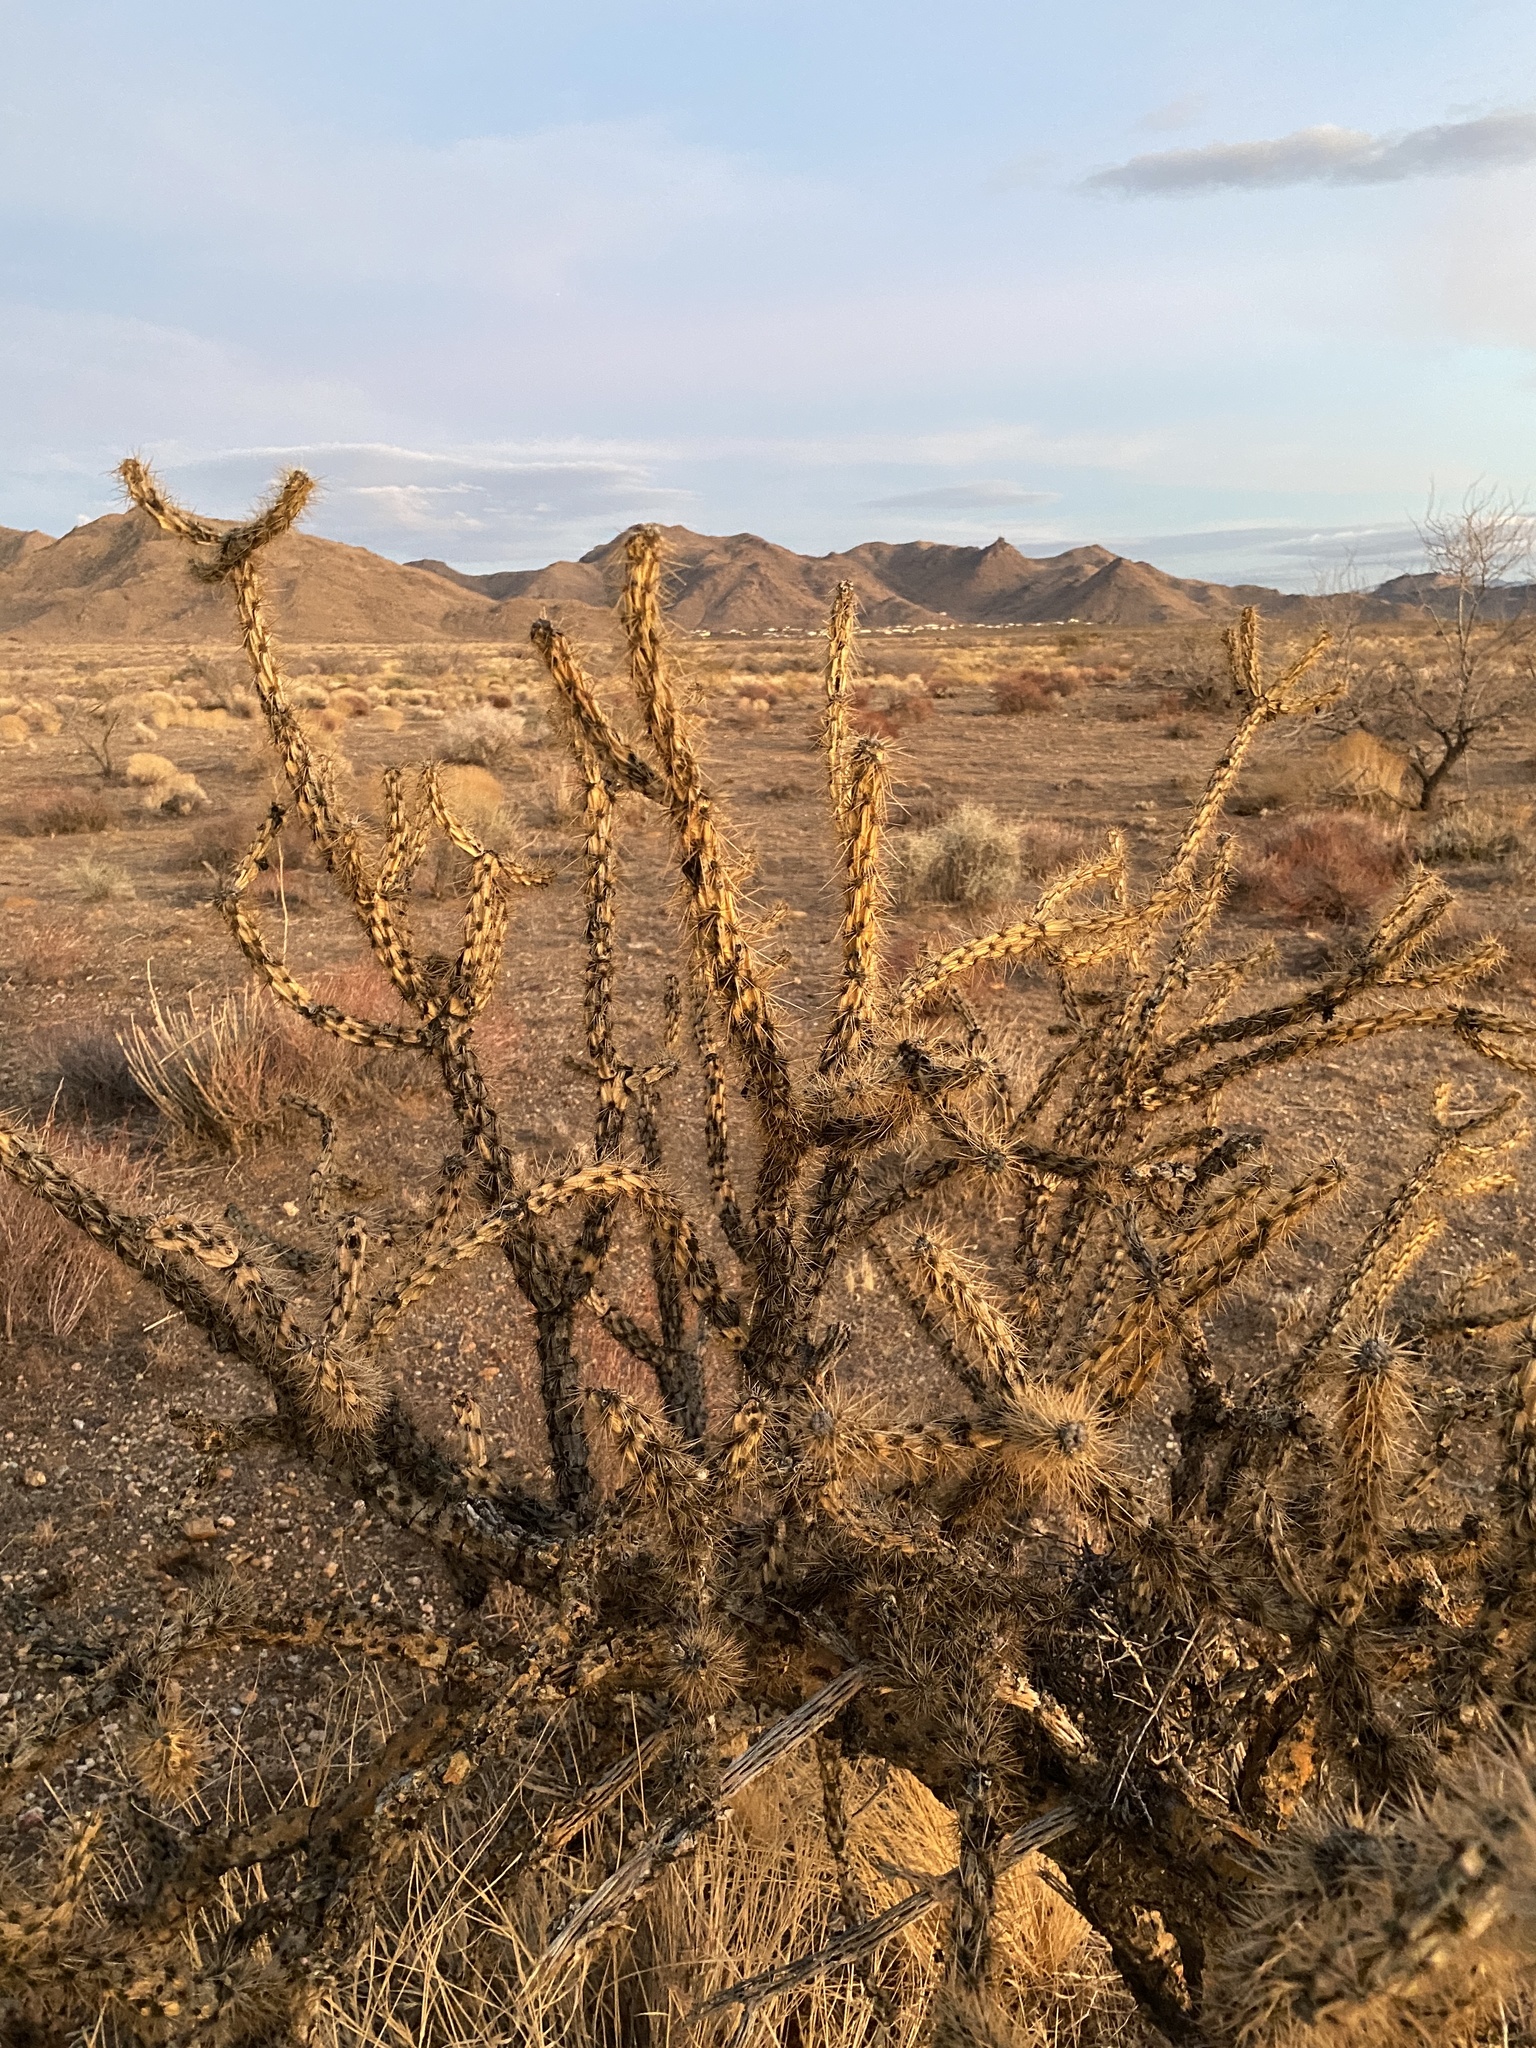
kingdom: Plantae
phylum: Tracheophyta
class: Magnoliopsida
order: Caryophyllales
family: Cactaceae
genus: Cylindropuntia
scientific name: Cylindropuntia acanthocarpa
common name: Buckhorn cholla
